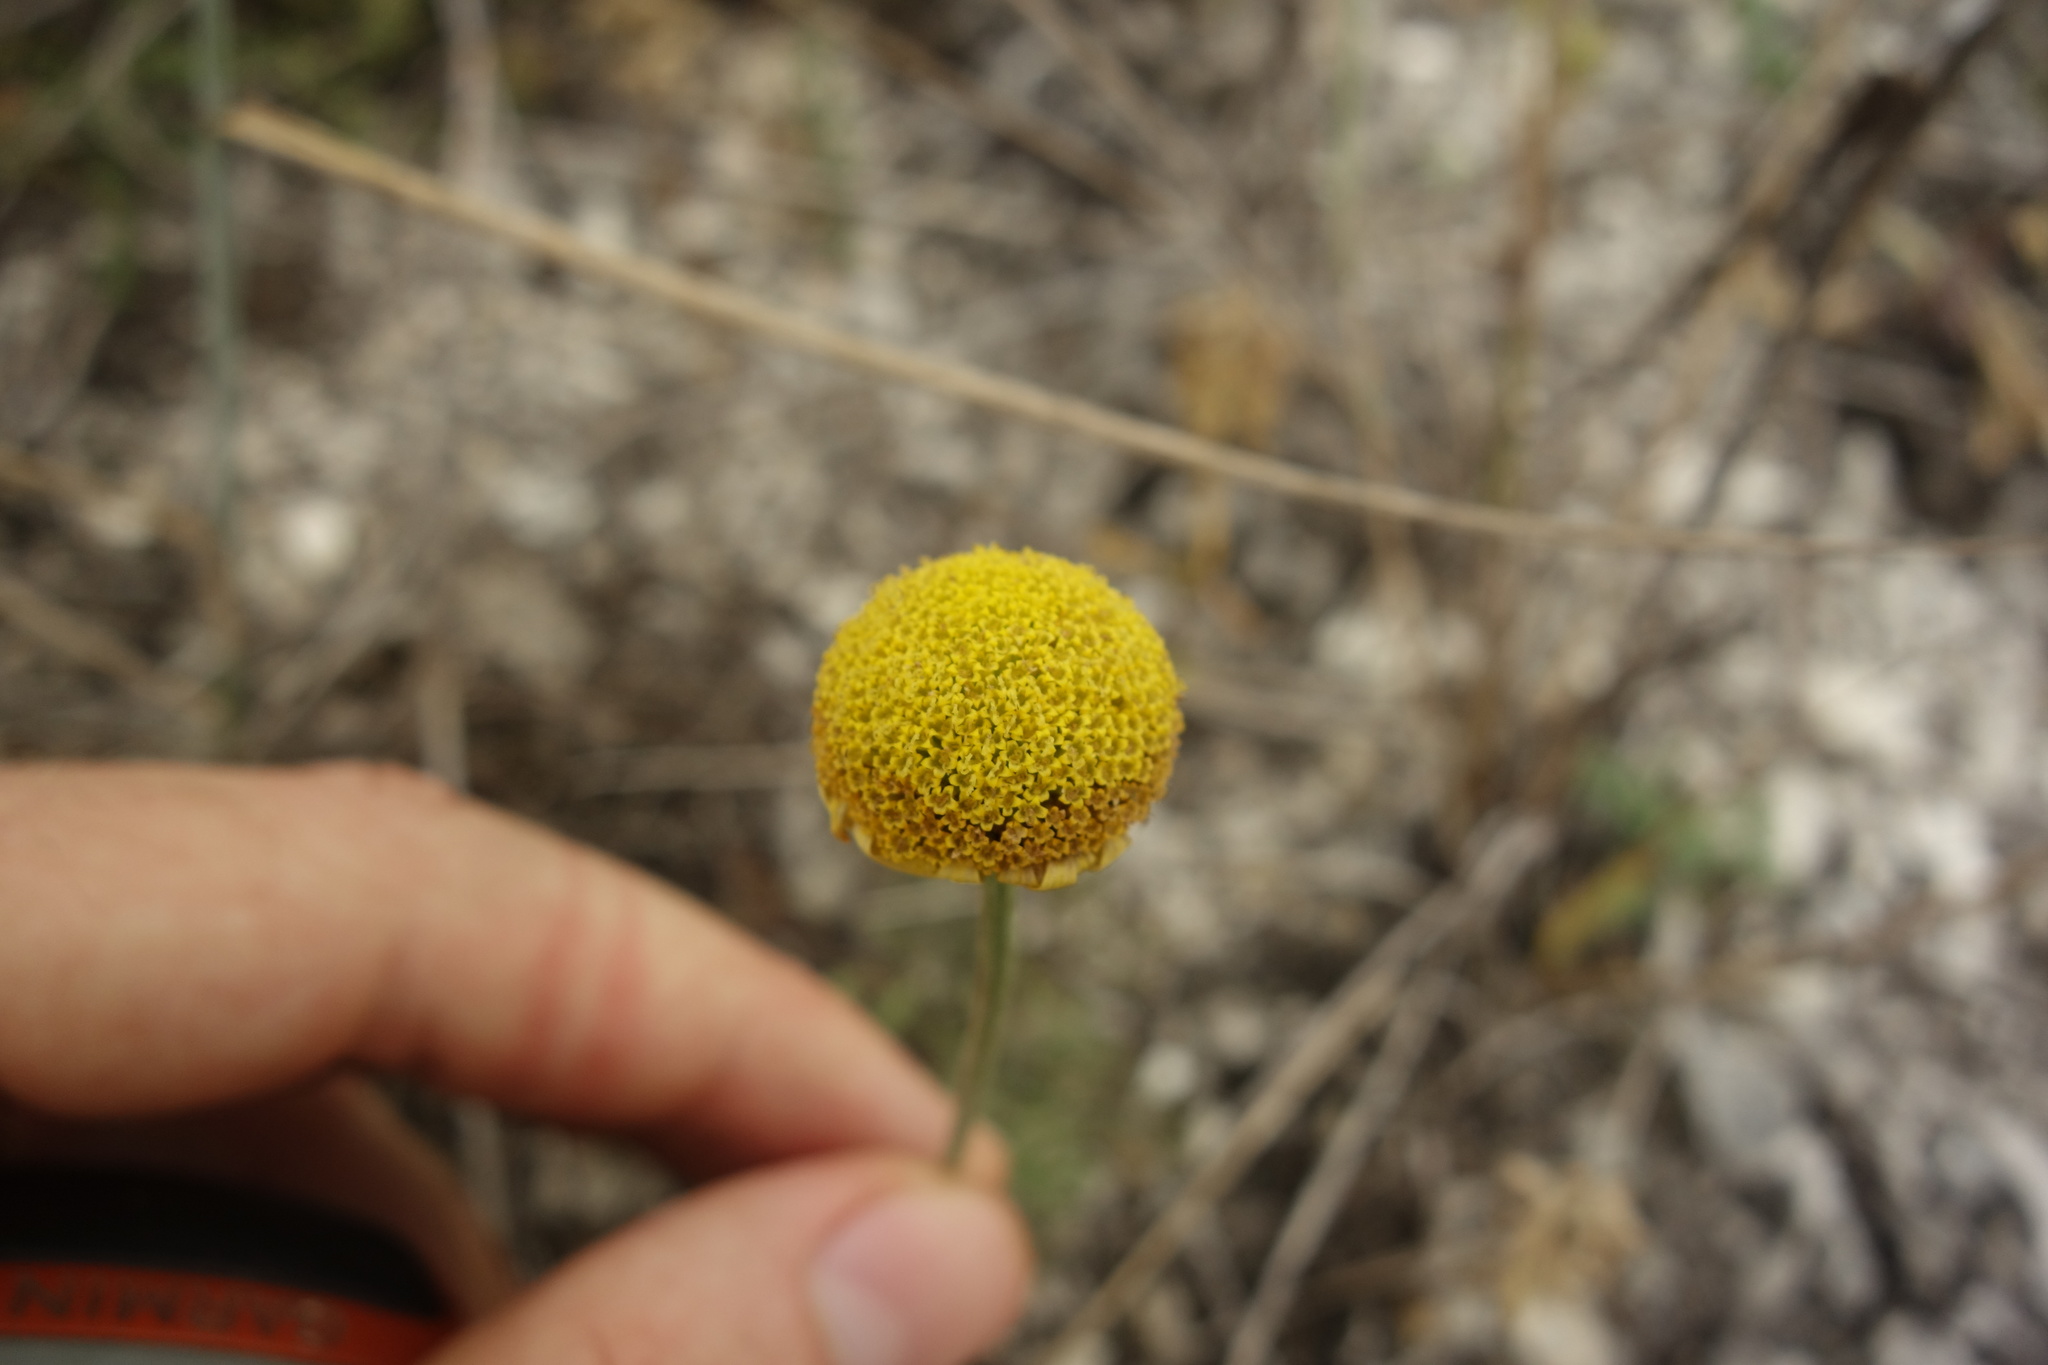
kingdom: Plantae
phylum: Tracheophyta
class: Magnoliopsida
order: Asterales
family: Asteraceae
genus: Cota
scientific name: Cota tinctoria
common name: Golden chamomile
